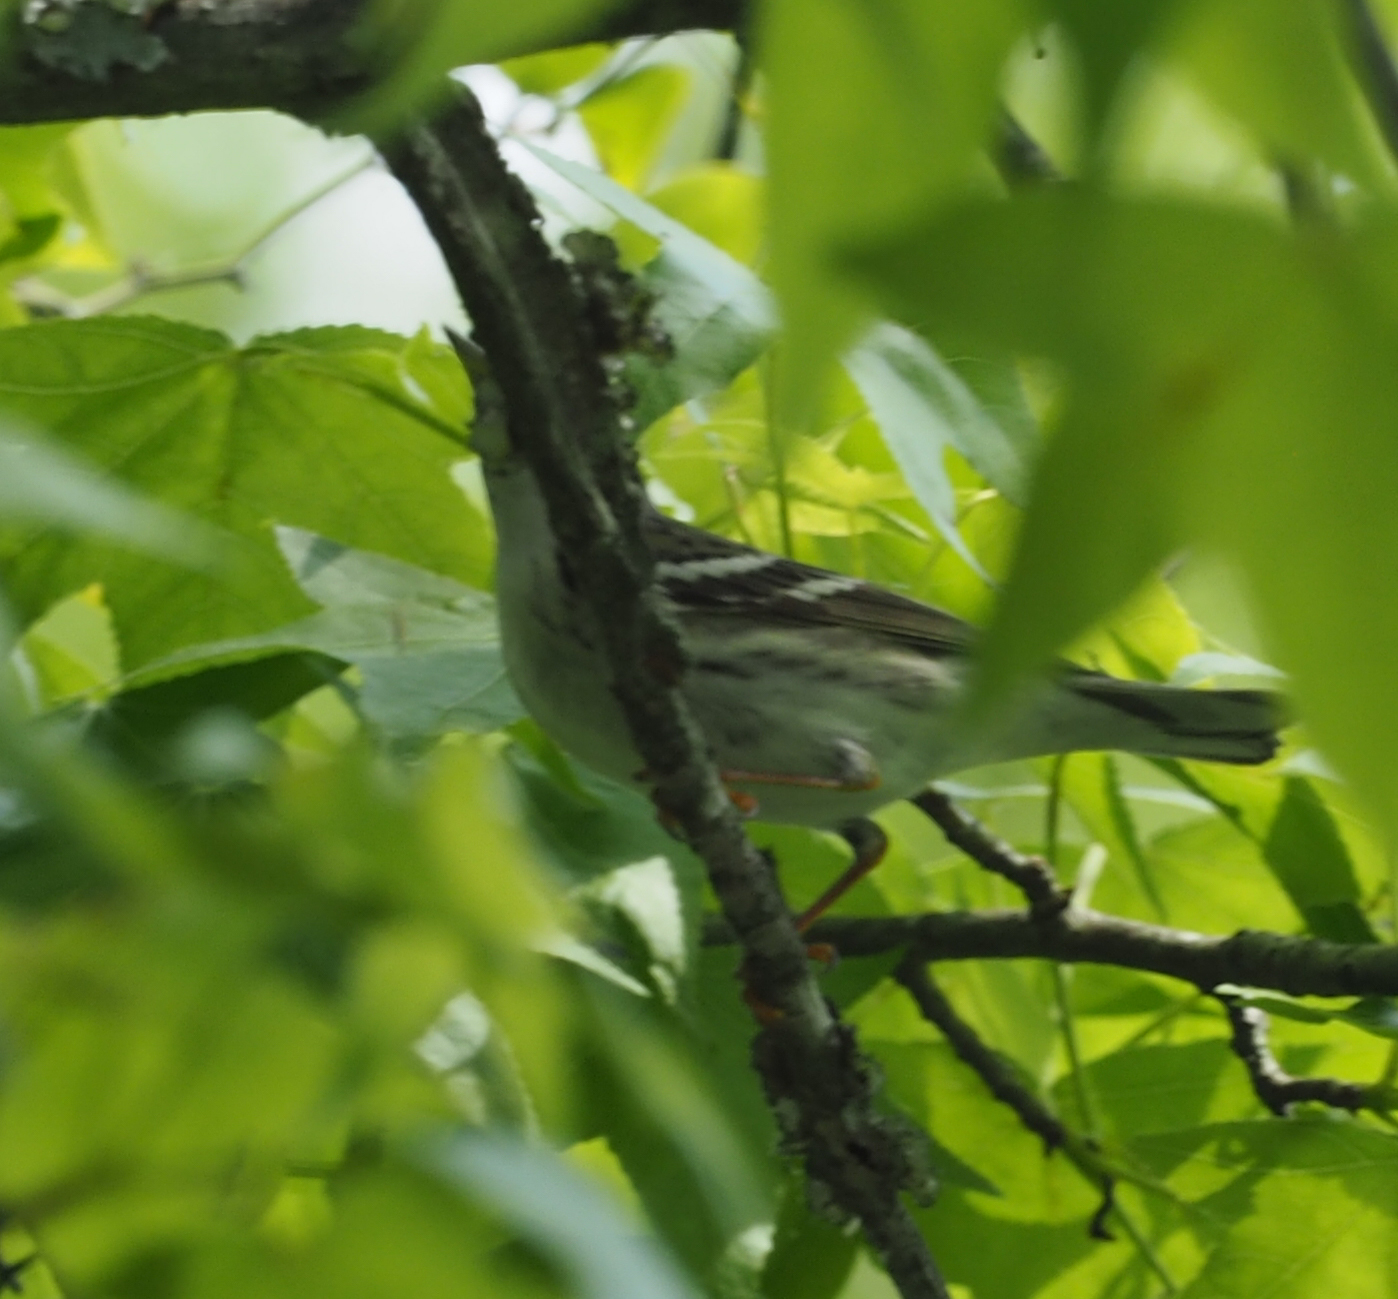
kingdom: Animalia
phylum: Chordata
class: Aves
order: Passeriformes
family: Parulidae
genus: Setophaga
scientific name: Setophaga striata
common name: Blackpoll warbler
